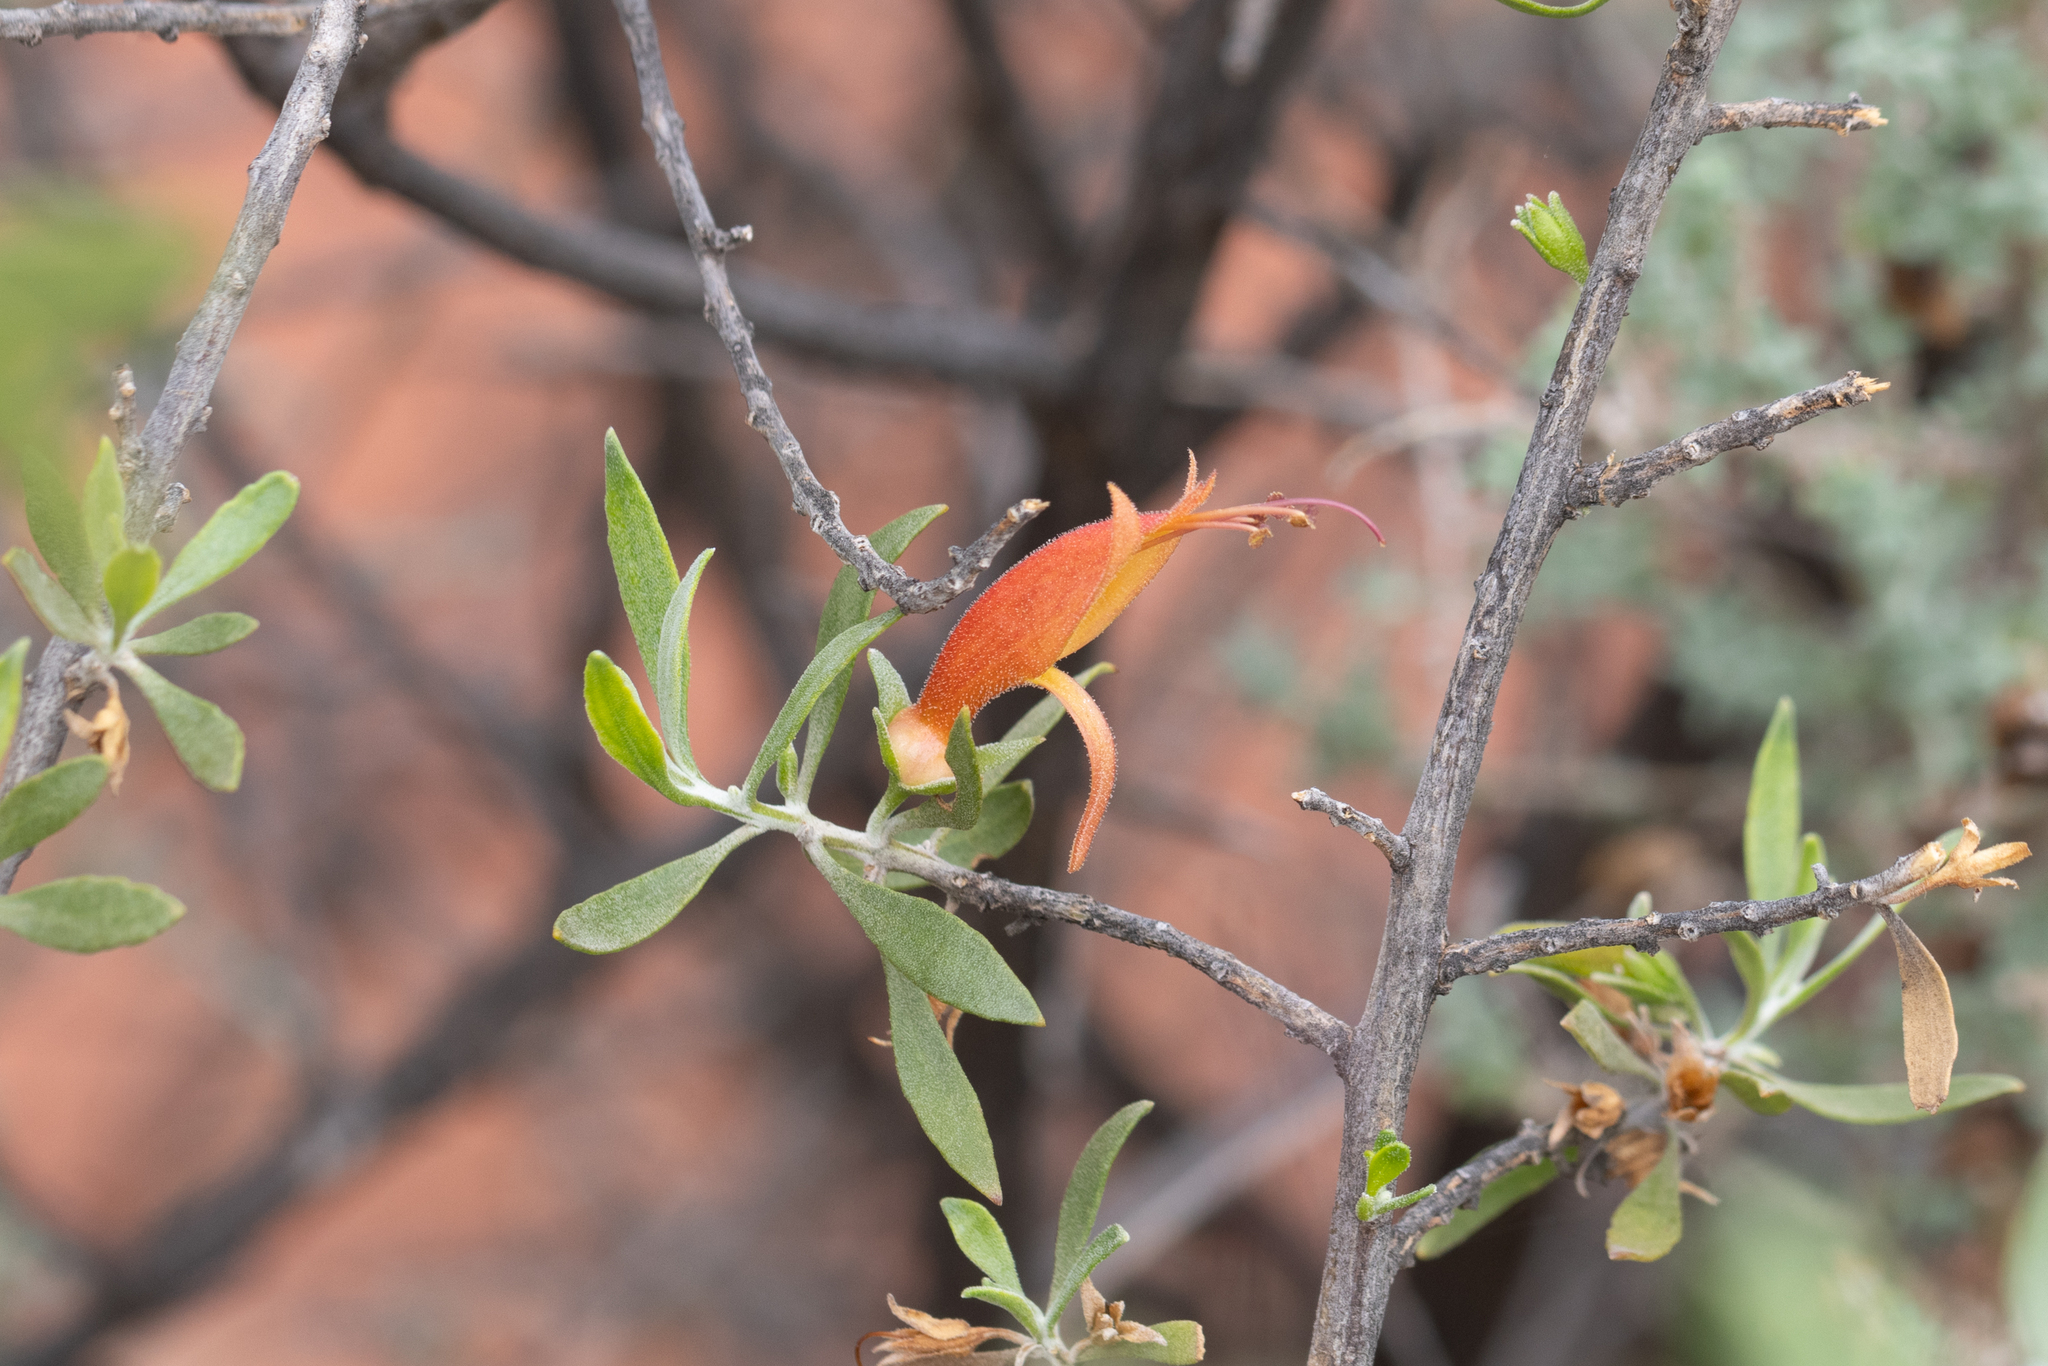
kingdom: Plantae
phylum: Tracheophyta
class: Magnoliopsida
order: Lamiales
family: Scrophulariaceae
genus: Eremophila
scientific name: Eremophila glabra
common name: Black-fuchsia
